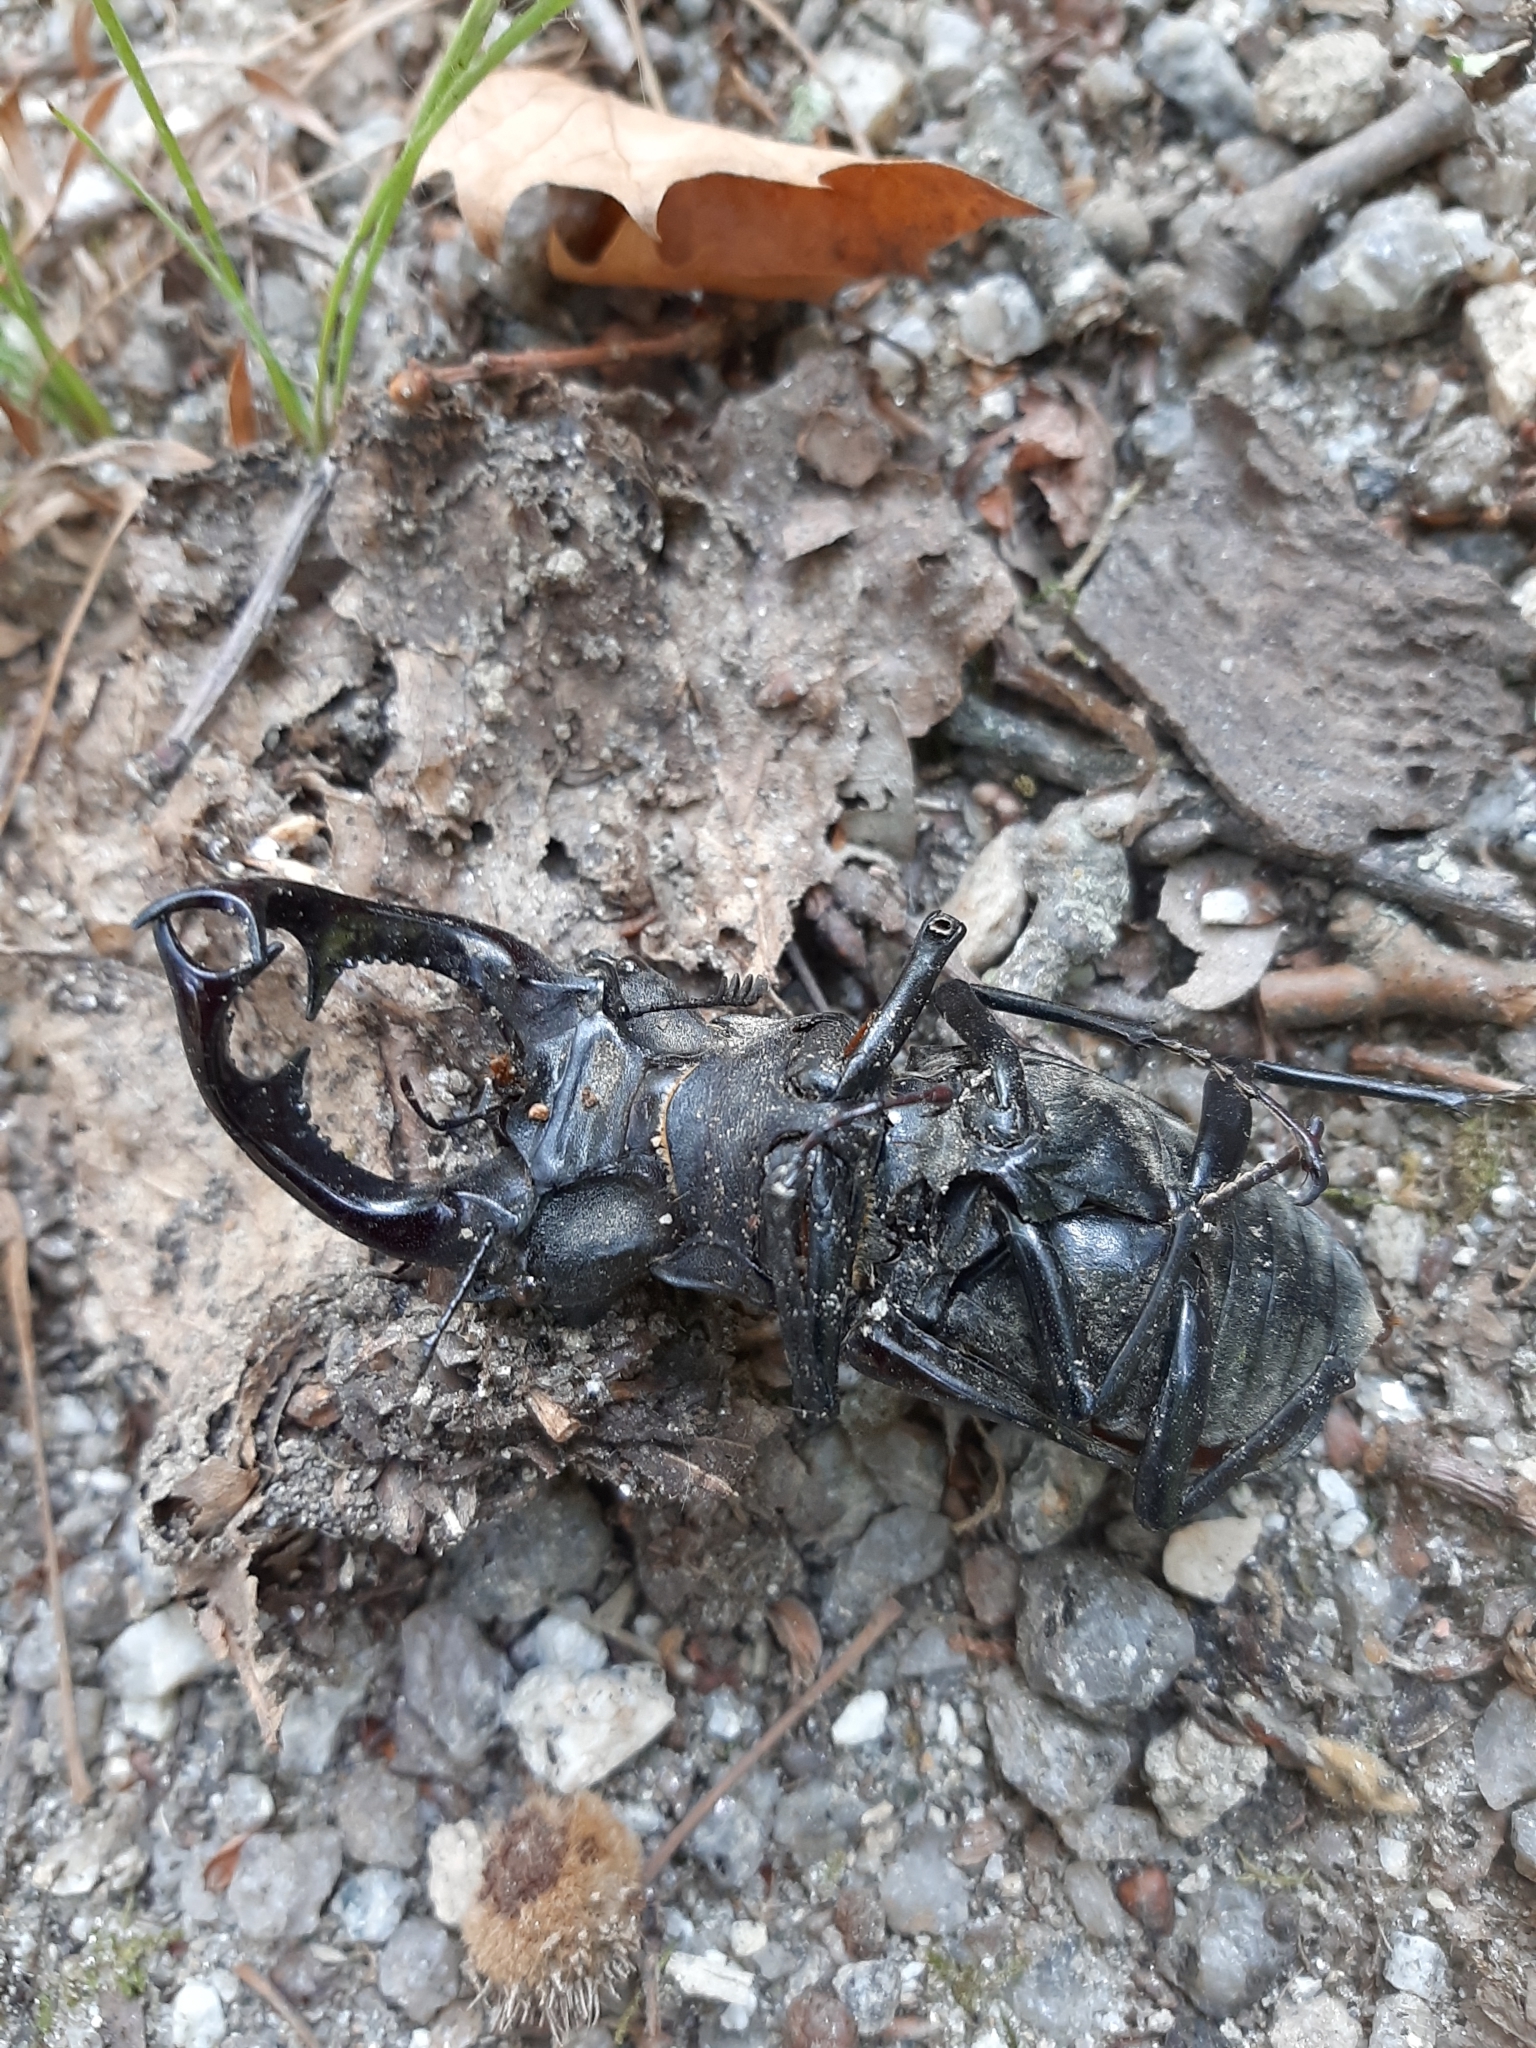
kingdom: Animalia
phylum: Arthropoda
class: Insecta
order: Coleoptera
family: Lucanidae
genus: Lucanus
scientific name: Lucanus cervus
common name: Stag beetle
